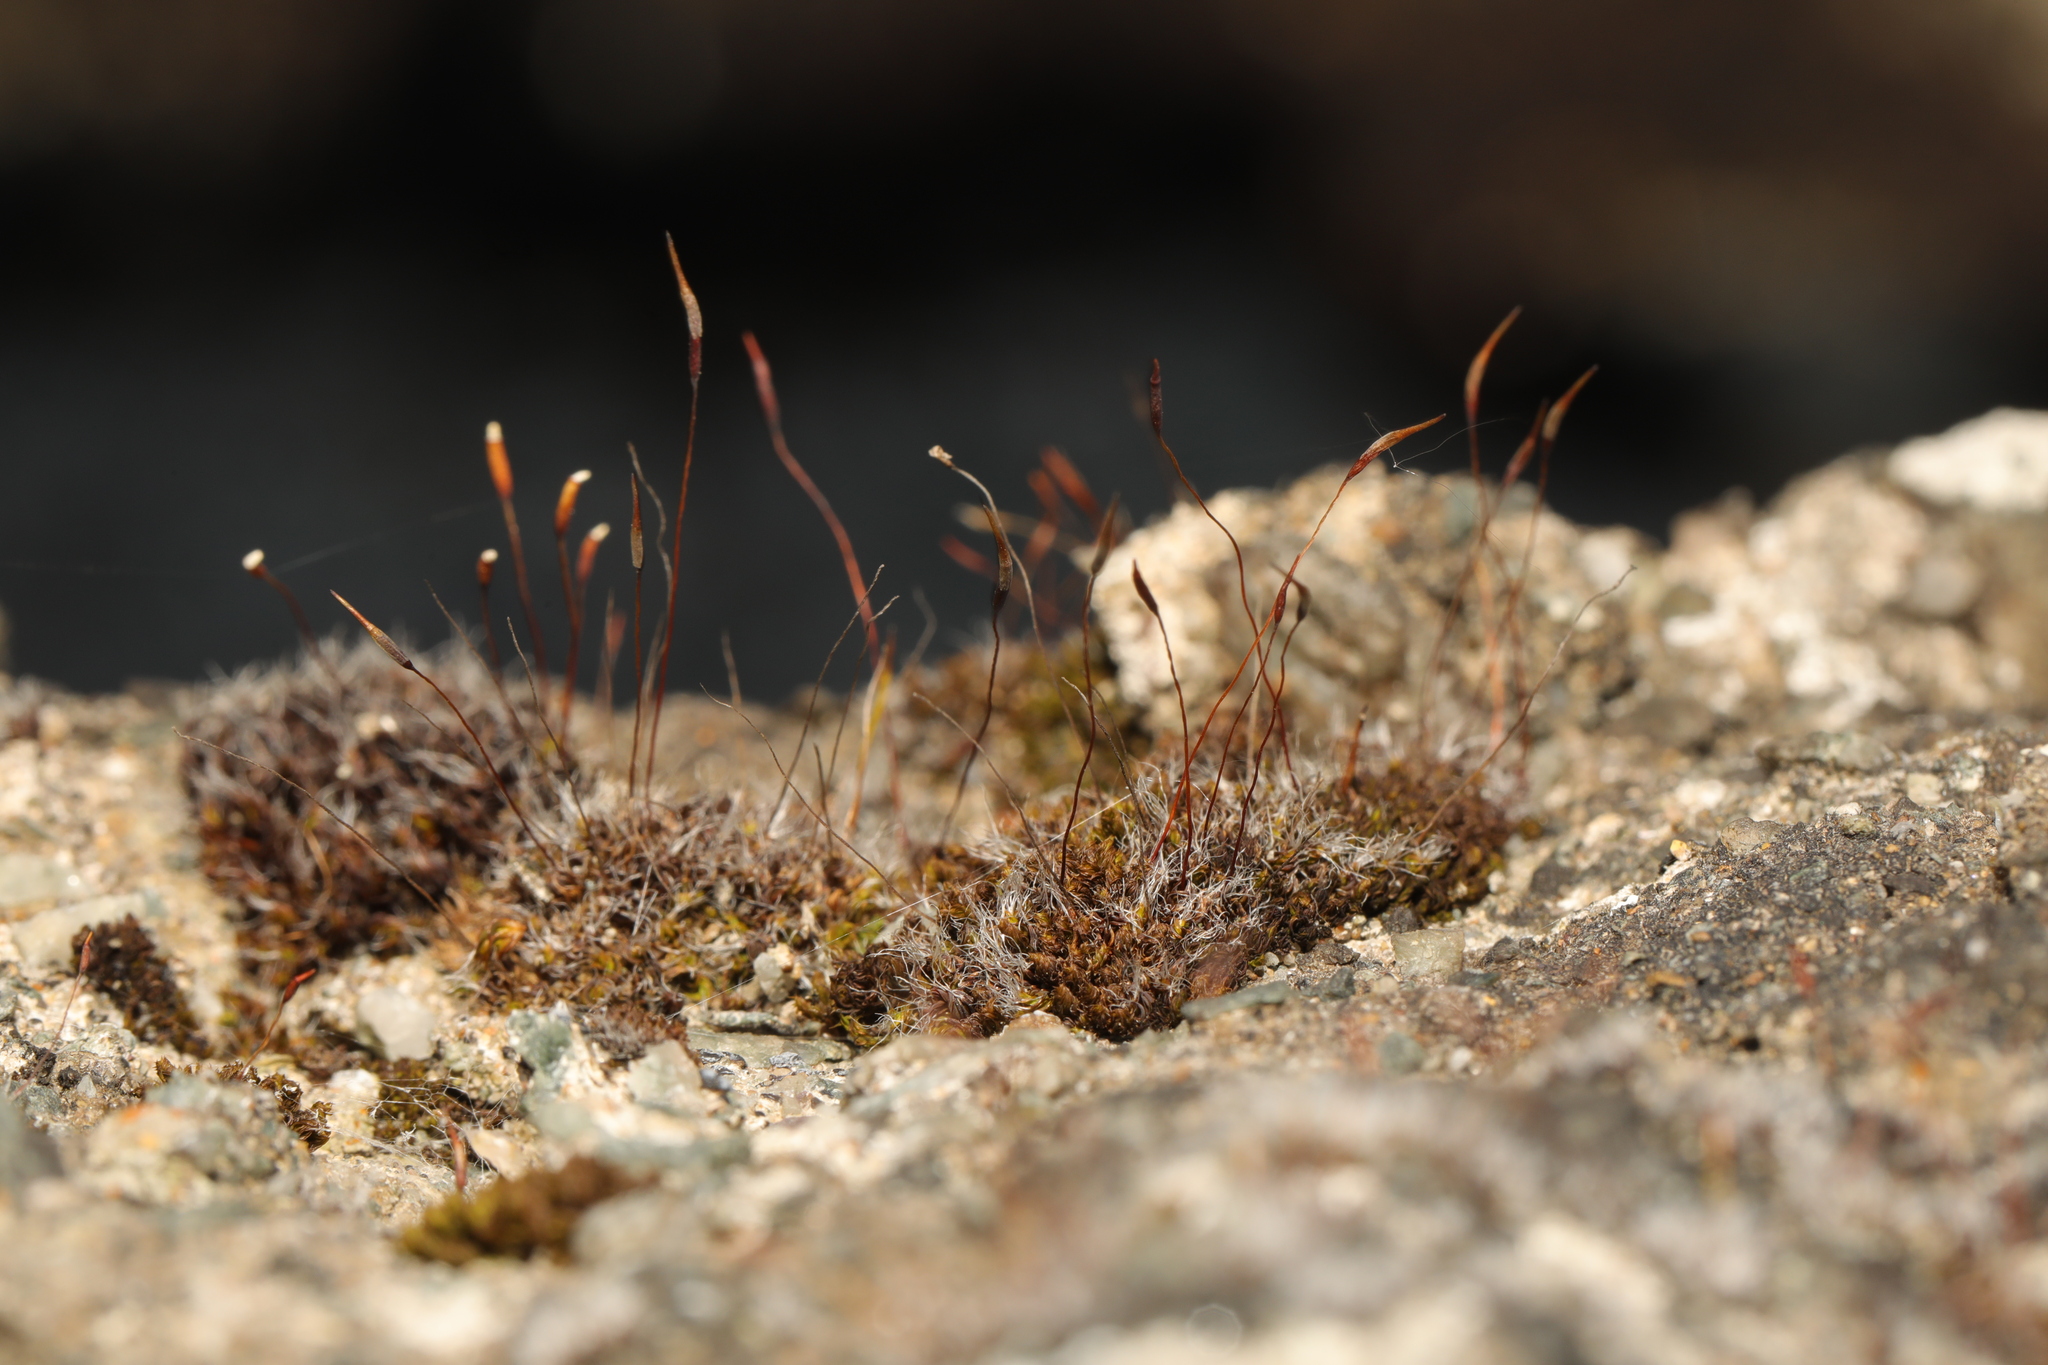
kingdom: Plantae
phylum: Bryophyta
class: Bryopsida
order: Pottiales
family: Pottiaceae
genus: Tortula
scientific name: Tortula muralis
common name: Wall screw-moss
